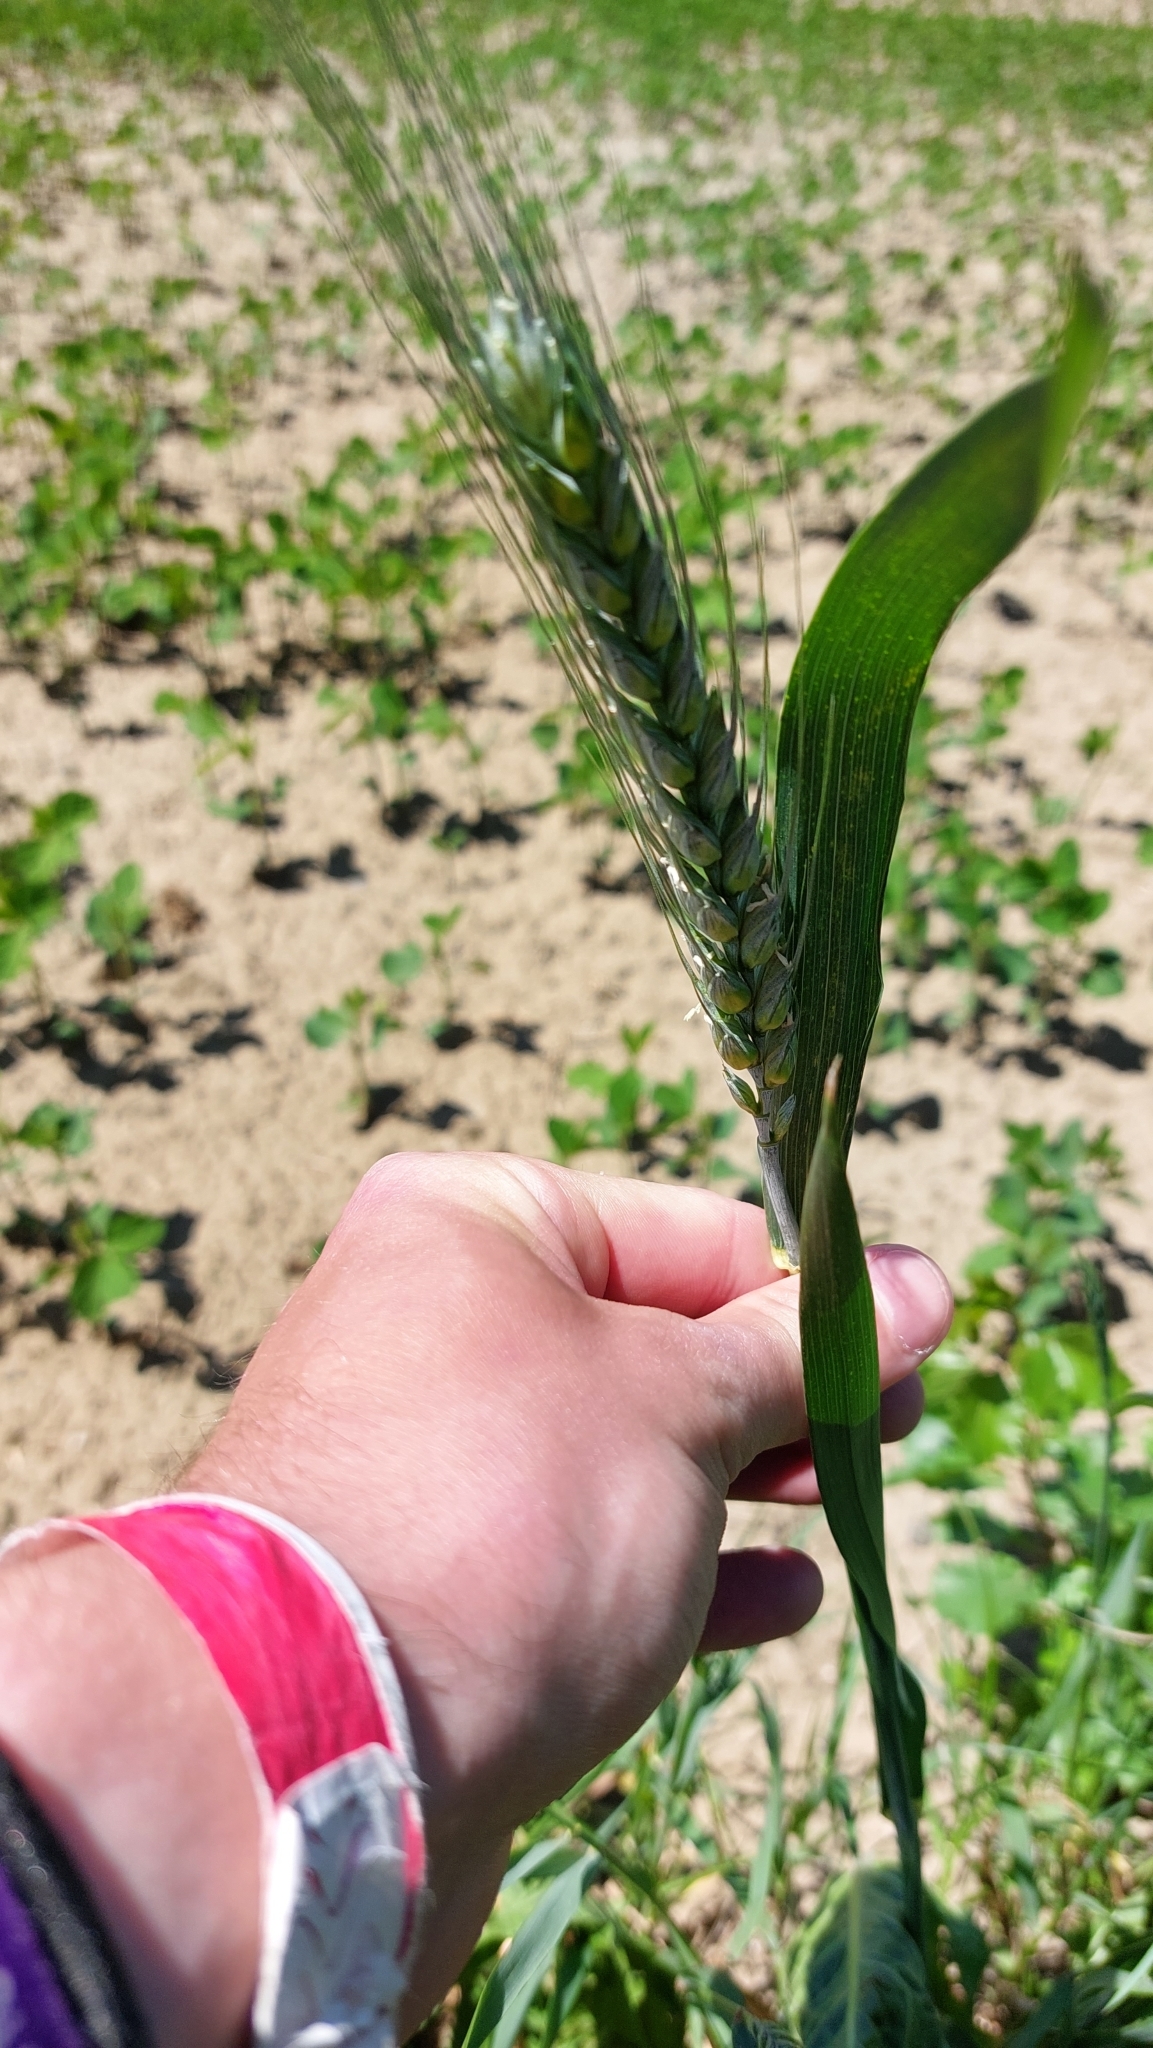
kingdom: Plantae
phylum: Tracheophyta
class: Liliopsida
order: Poales
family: Poaceae
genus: Triticum
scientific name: Triticum aestivum
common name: Common wheat
